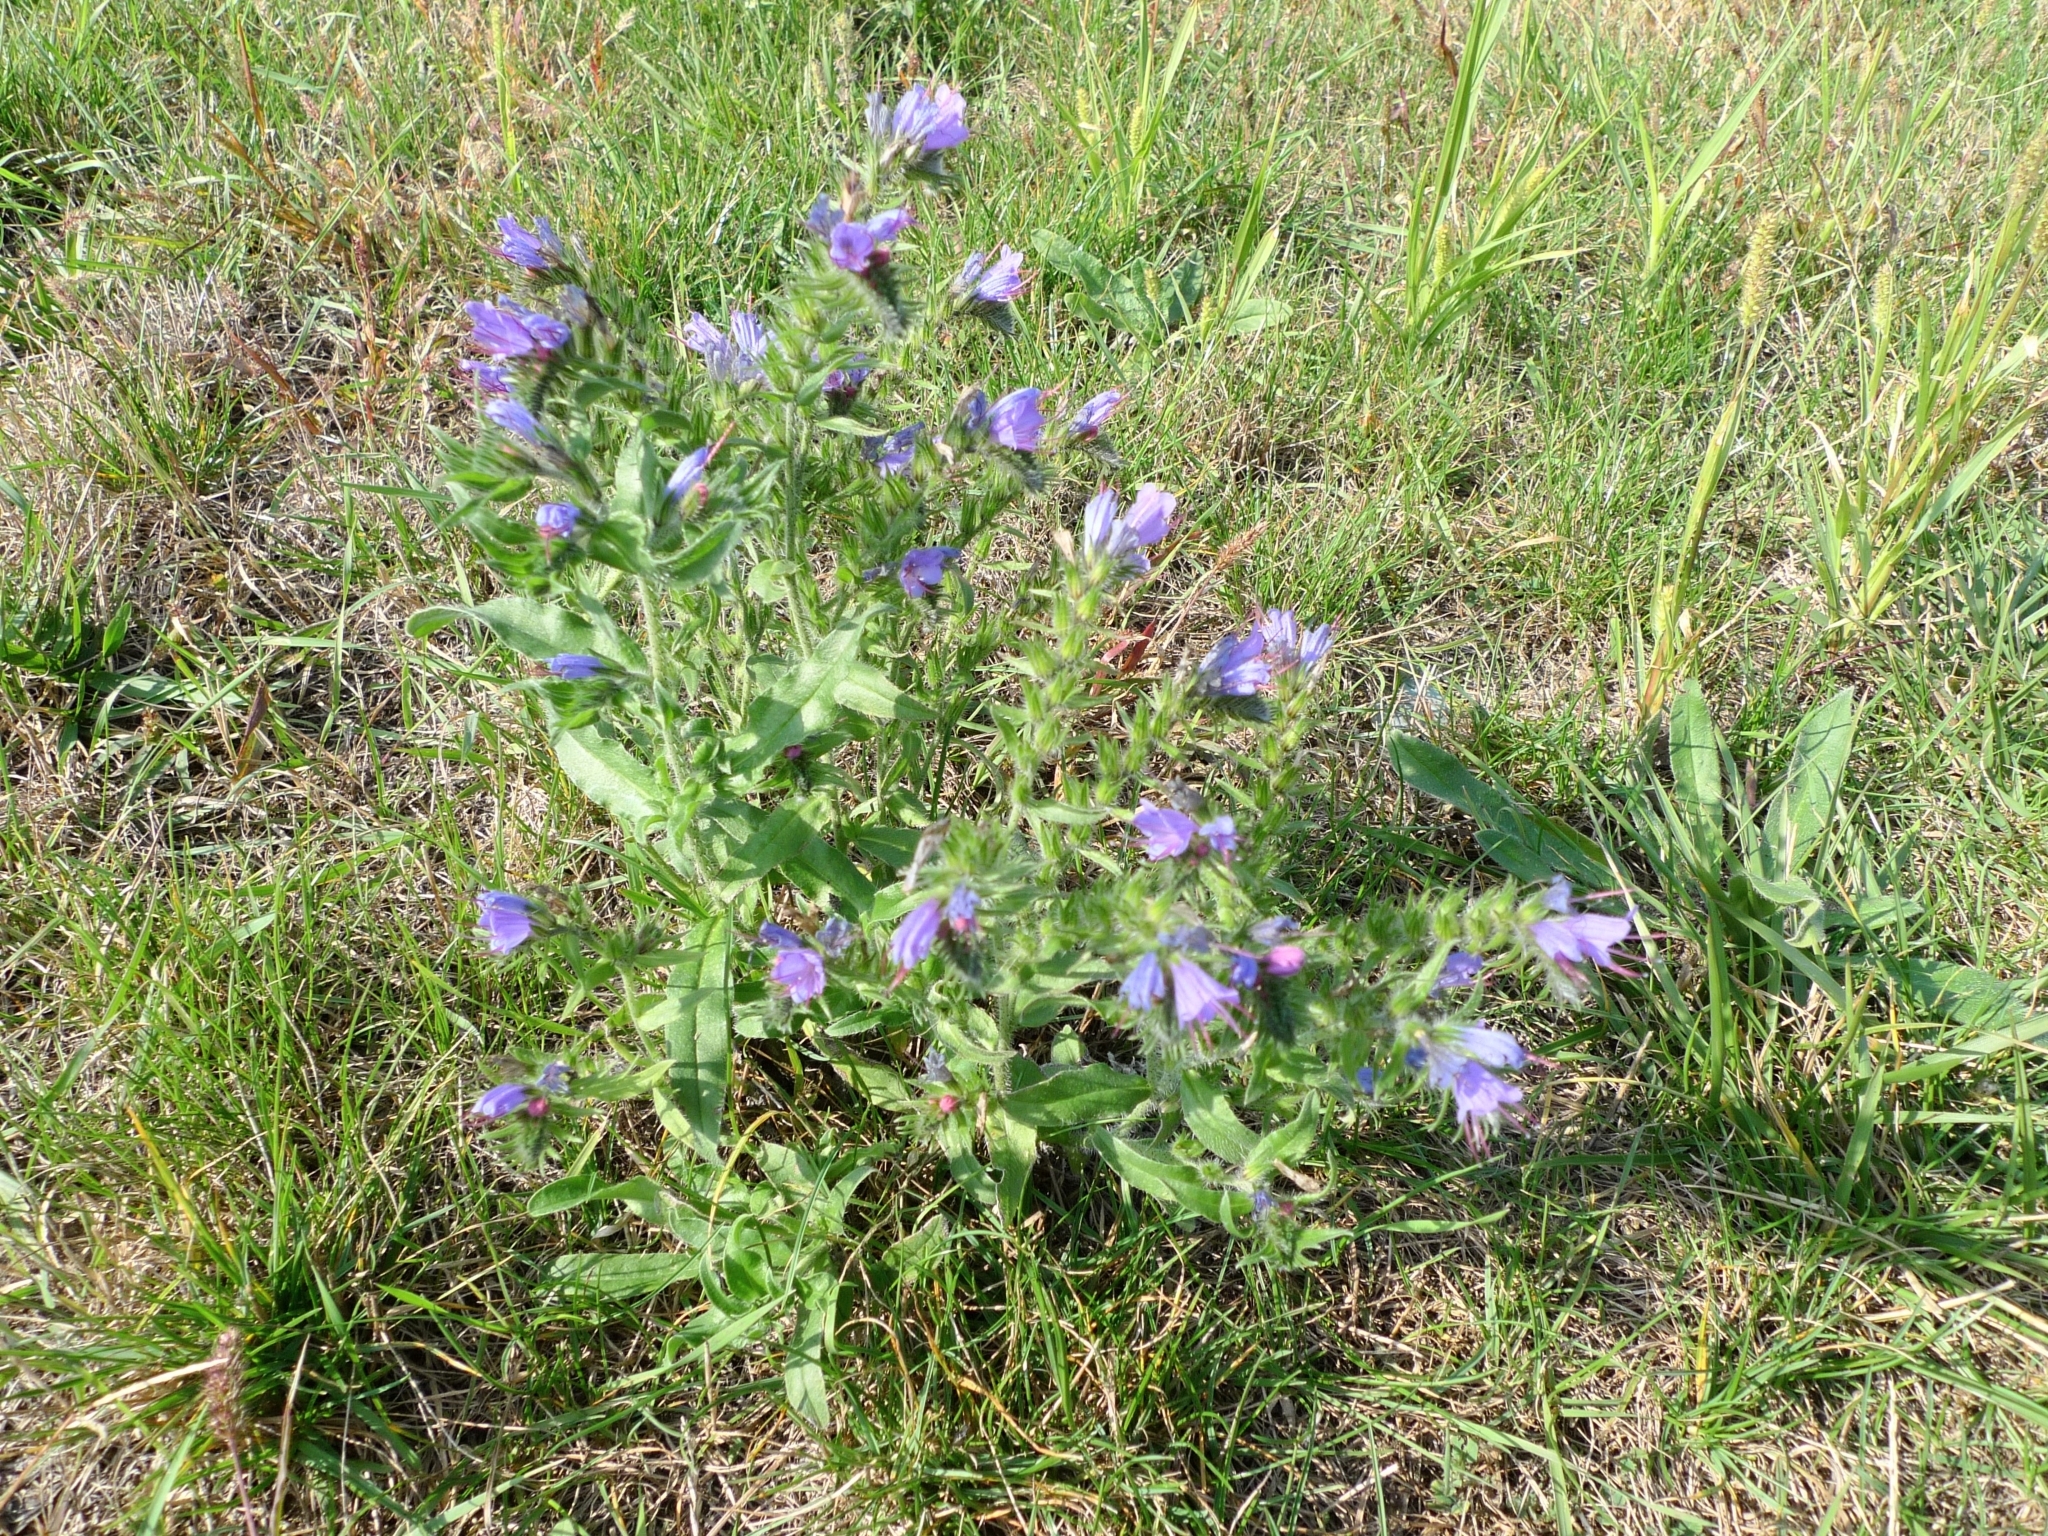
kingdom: Plantae
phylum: Tracheophyta
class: Magnoliopsida
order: Boraginales
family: Boraginaceae
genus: Echium
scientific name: Echium vulgare
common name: Common viper's bugloss
